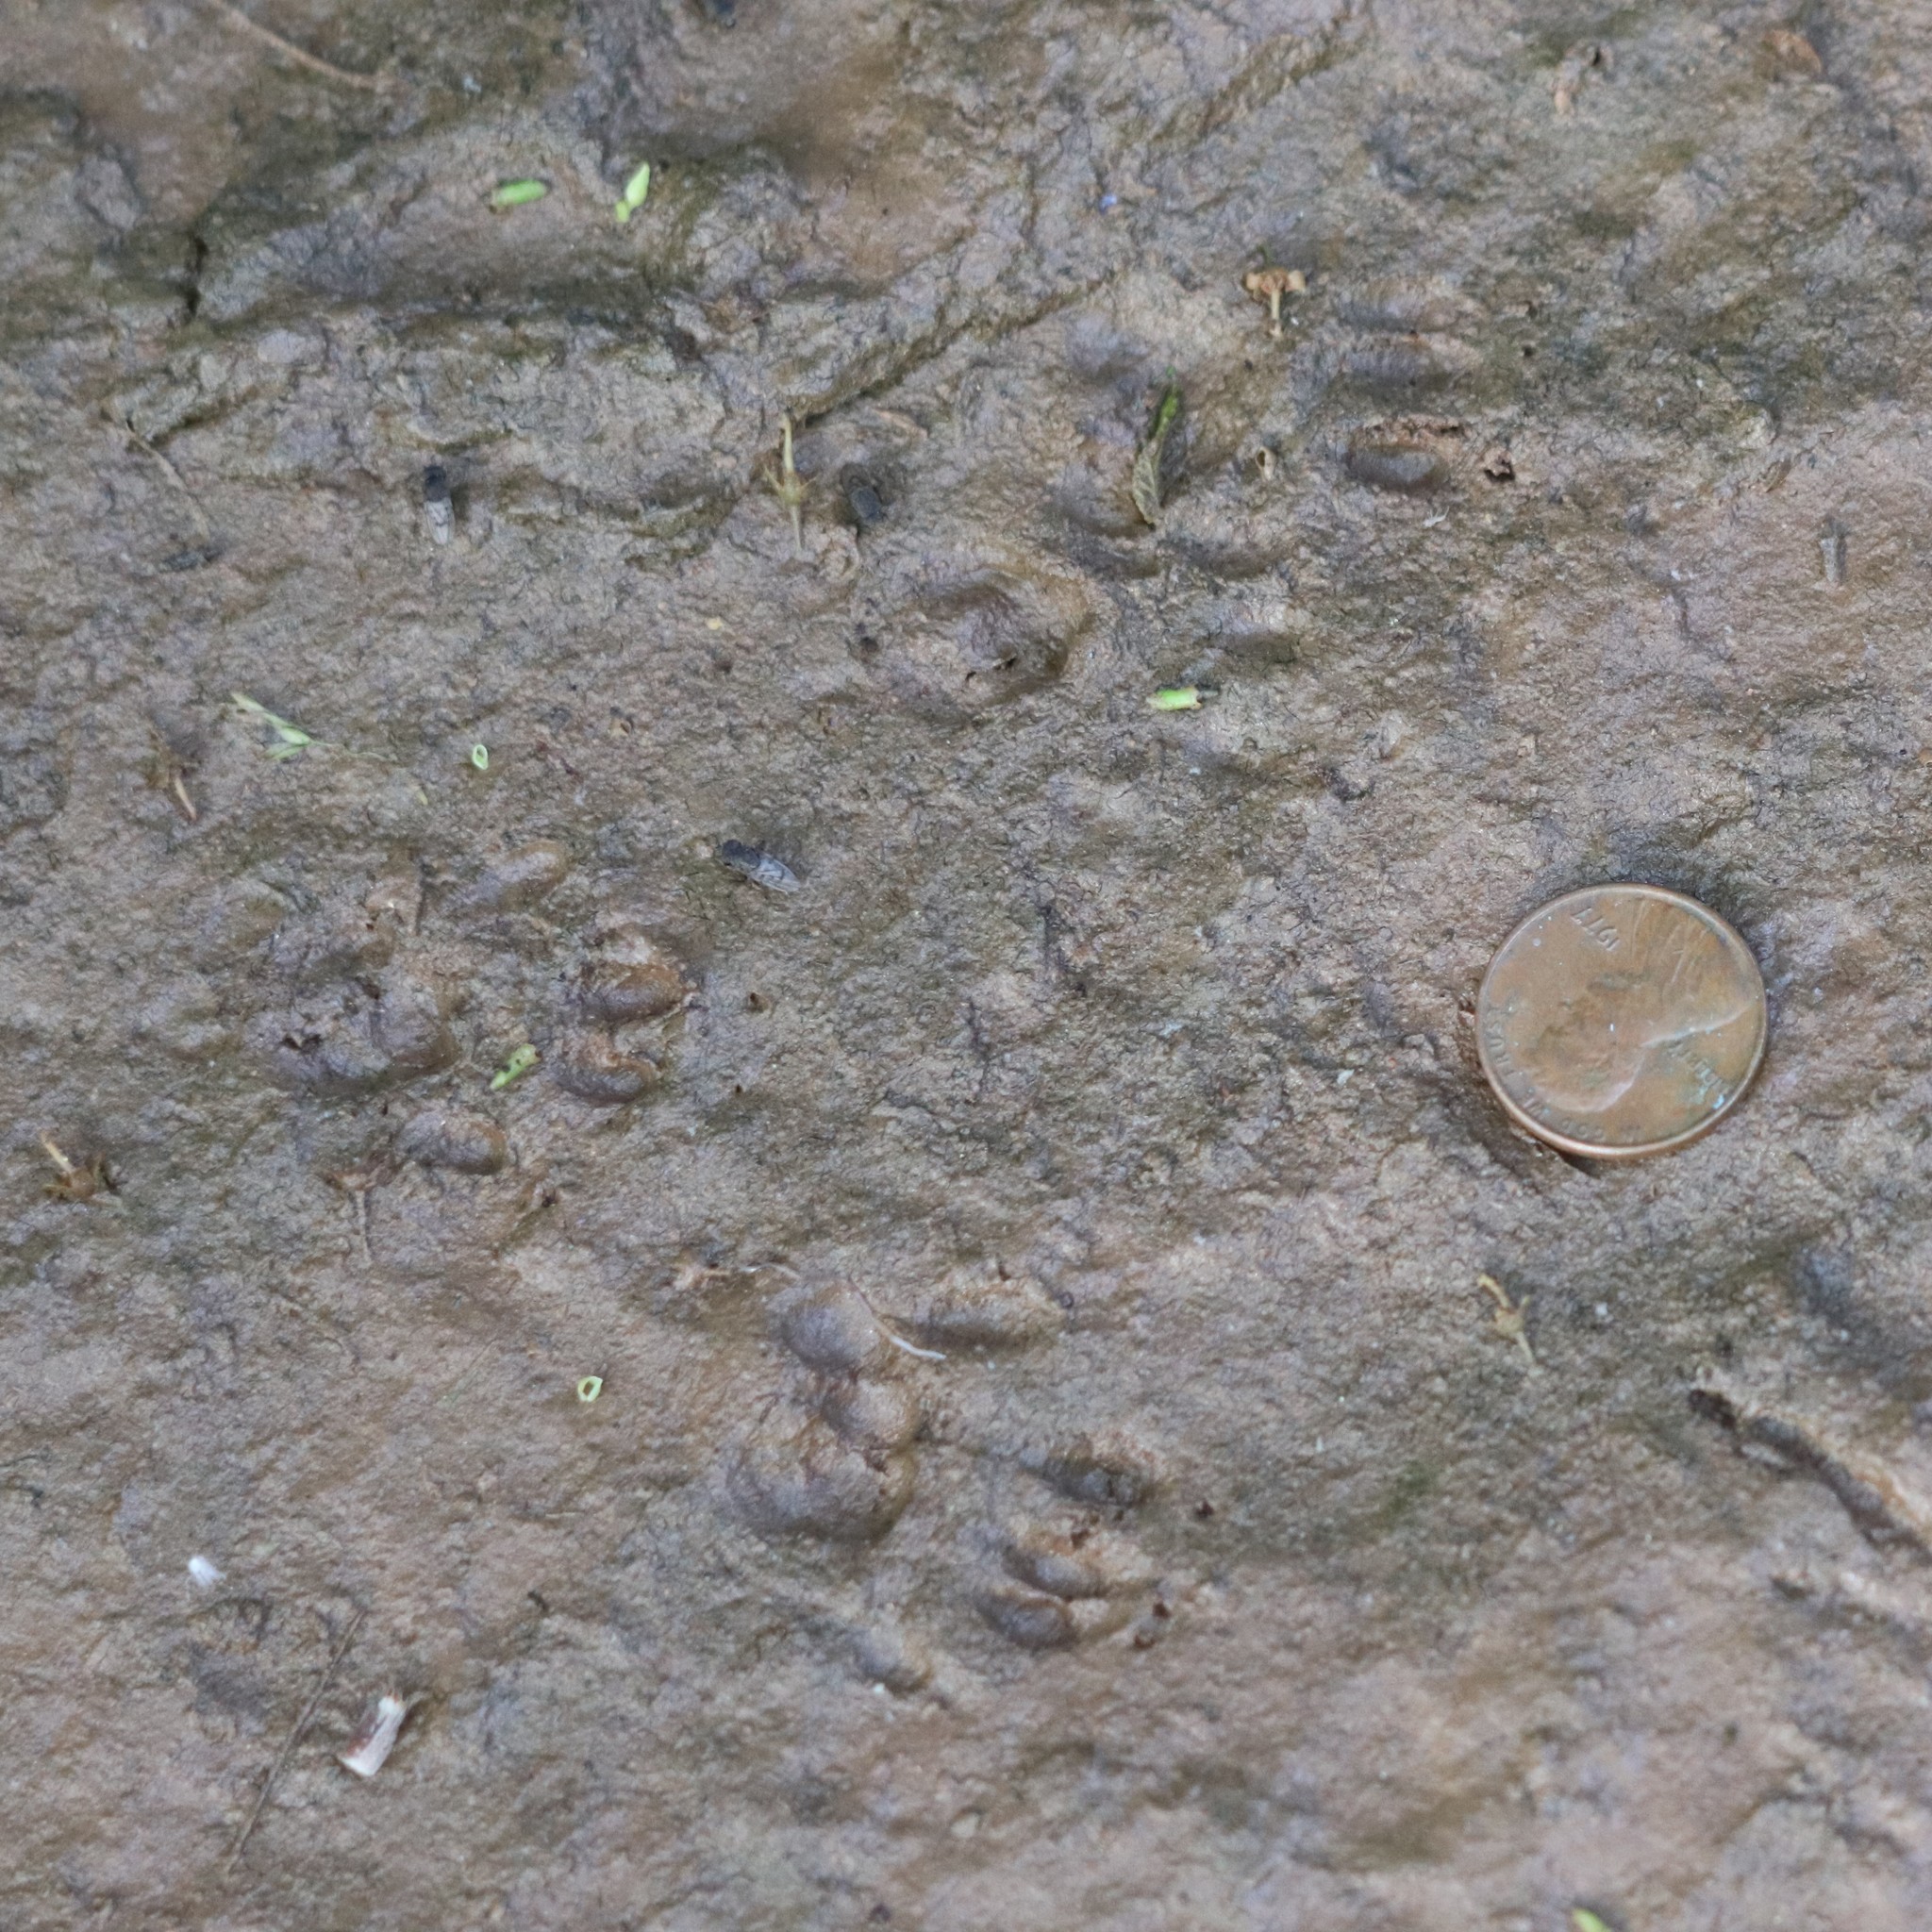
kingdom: Animalia
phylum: Chordata
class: Mammalia
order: Rodentia
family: Sciuridae
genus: Sciurus
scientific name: Sciurus carolinensis
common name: Eastern gray squirrel
